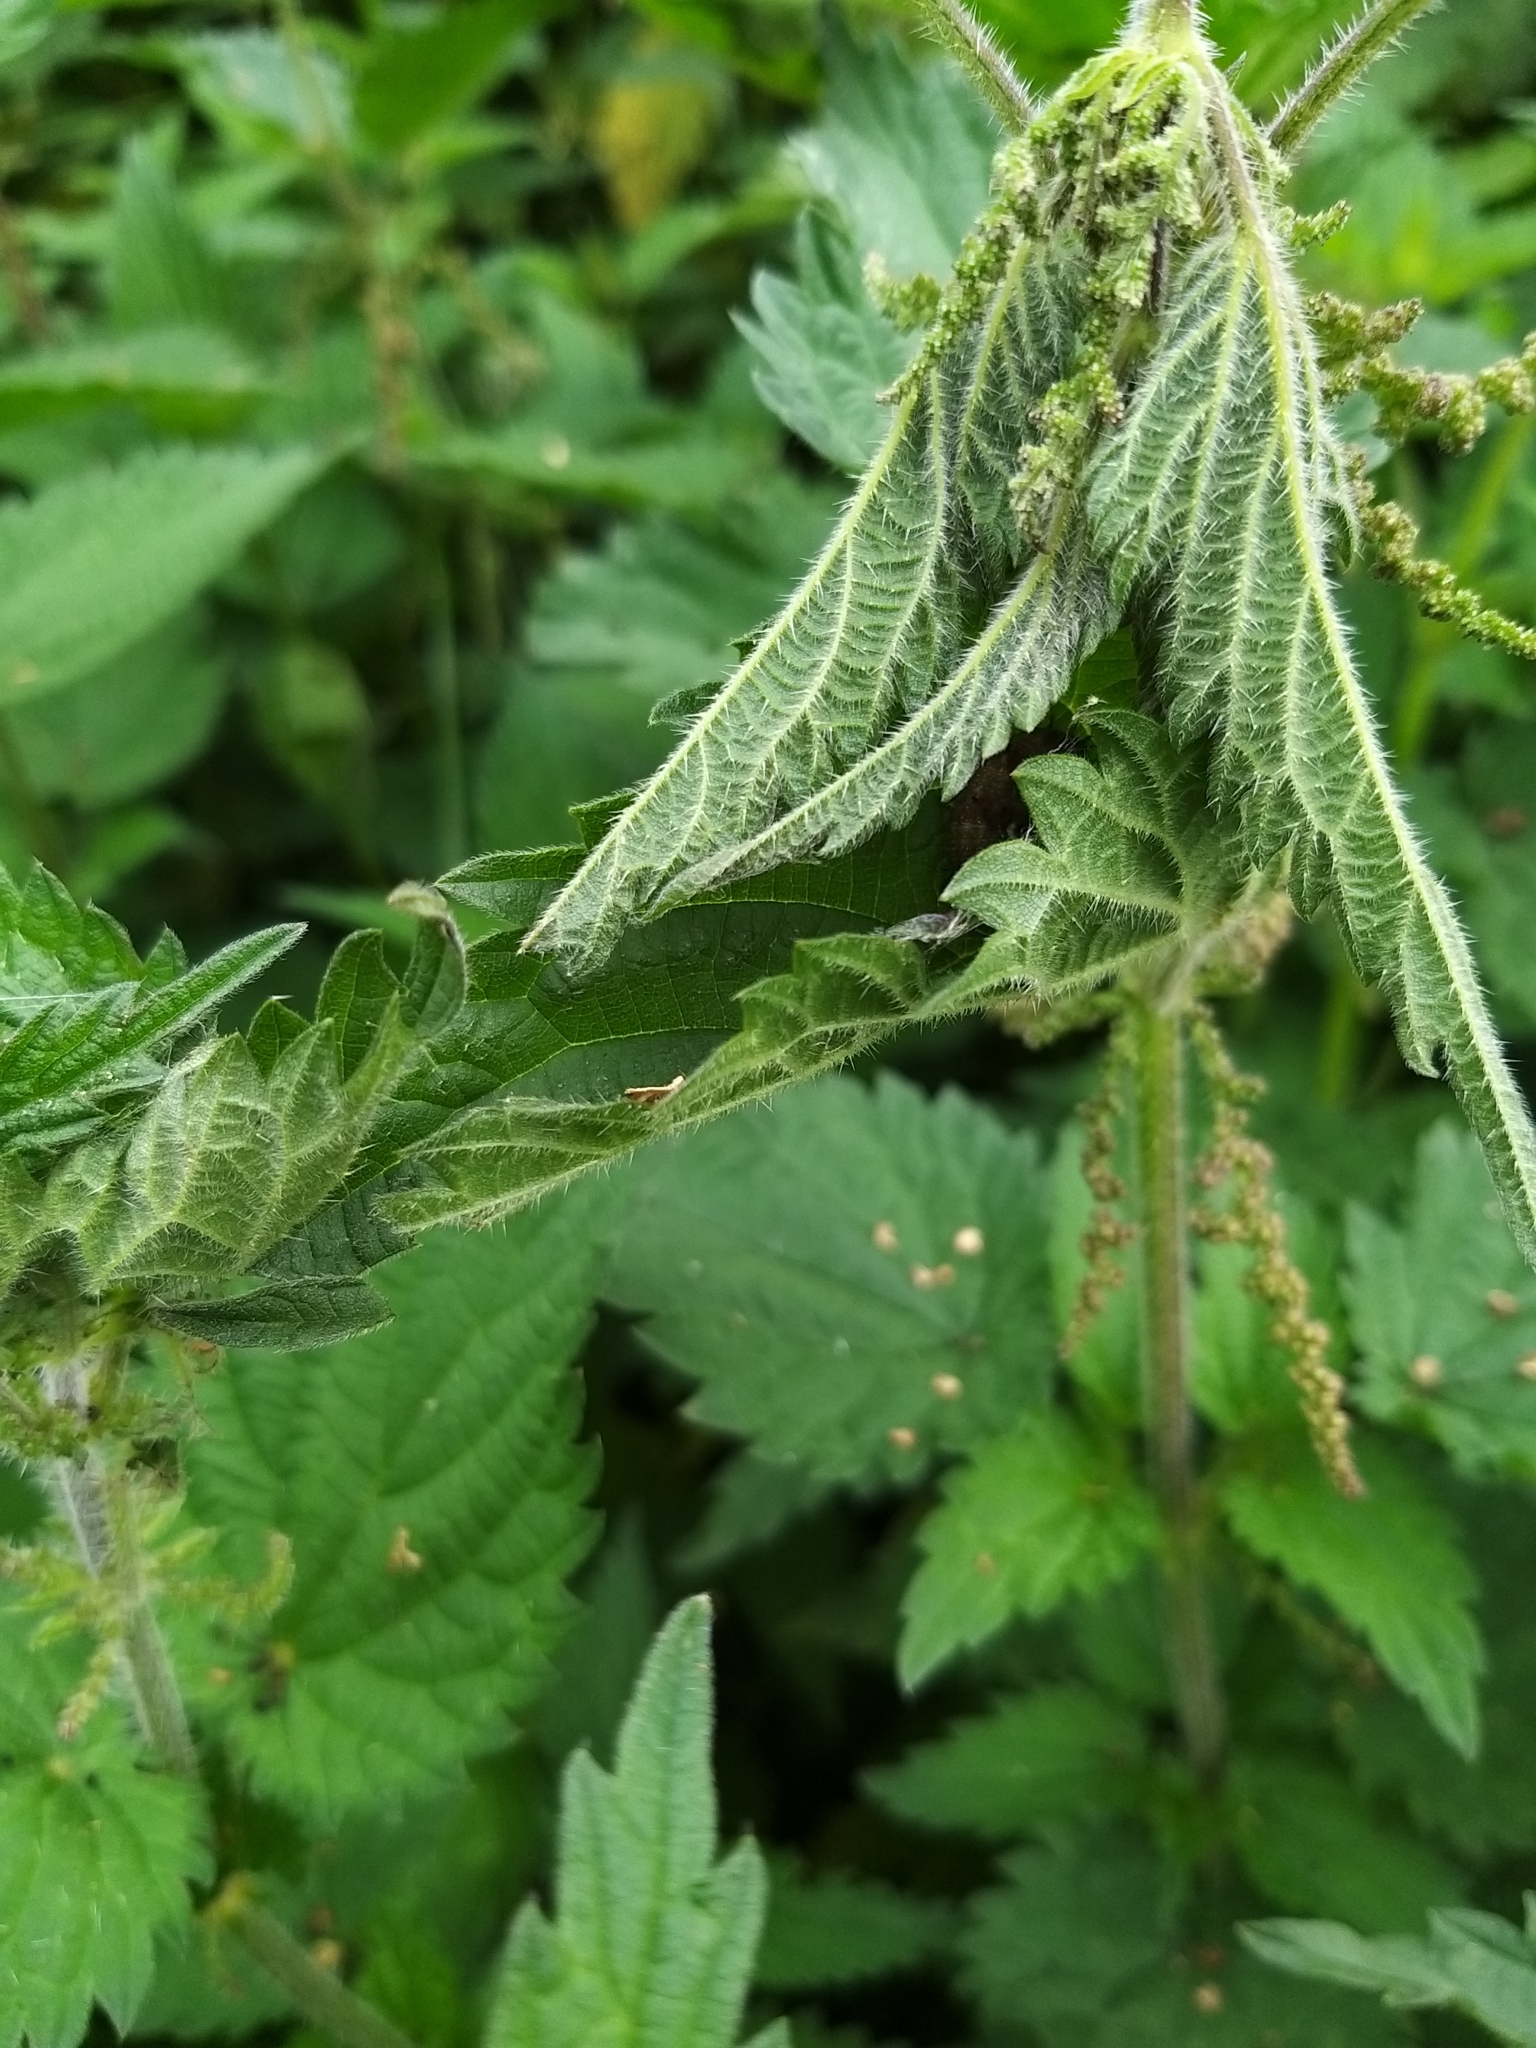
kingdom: Animalia
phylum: Arthropoda
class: Insecta
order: Lepidoptera
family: Nymphalidae
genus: Vanessa
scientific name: Vanessa atalanta
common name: Red admiral
